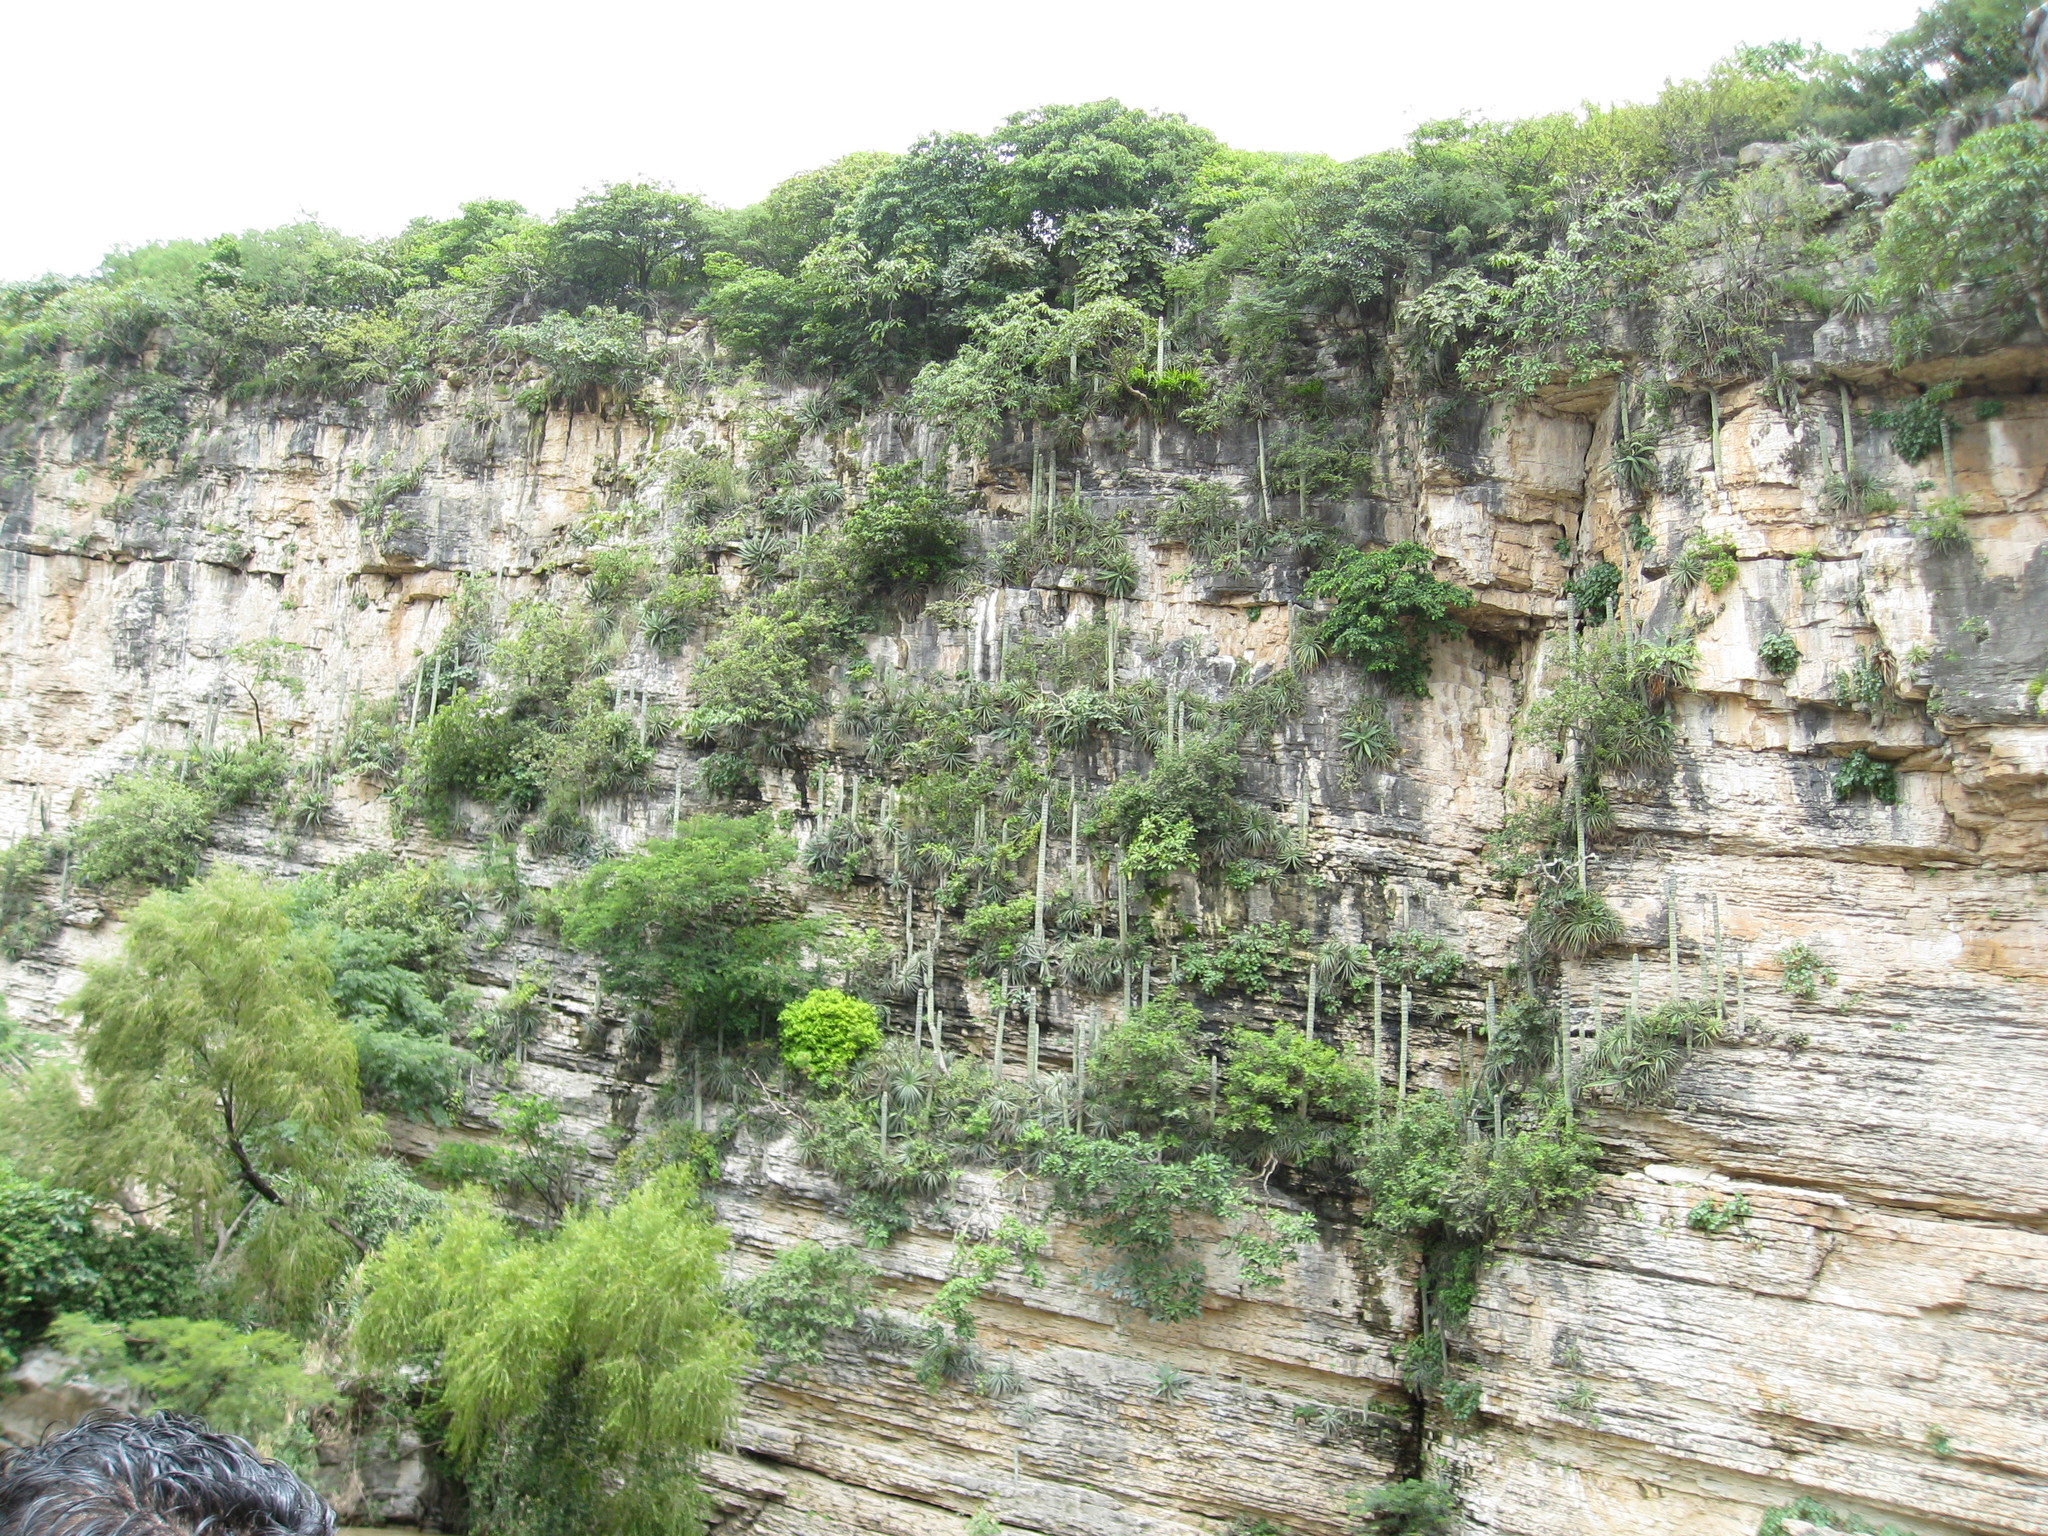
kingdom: Plantae
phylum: Tracheophyta
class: Liliopsida
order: Asparagales
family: Asparagaceae
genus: Agave
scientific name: Agave kewensis
